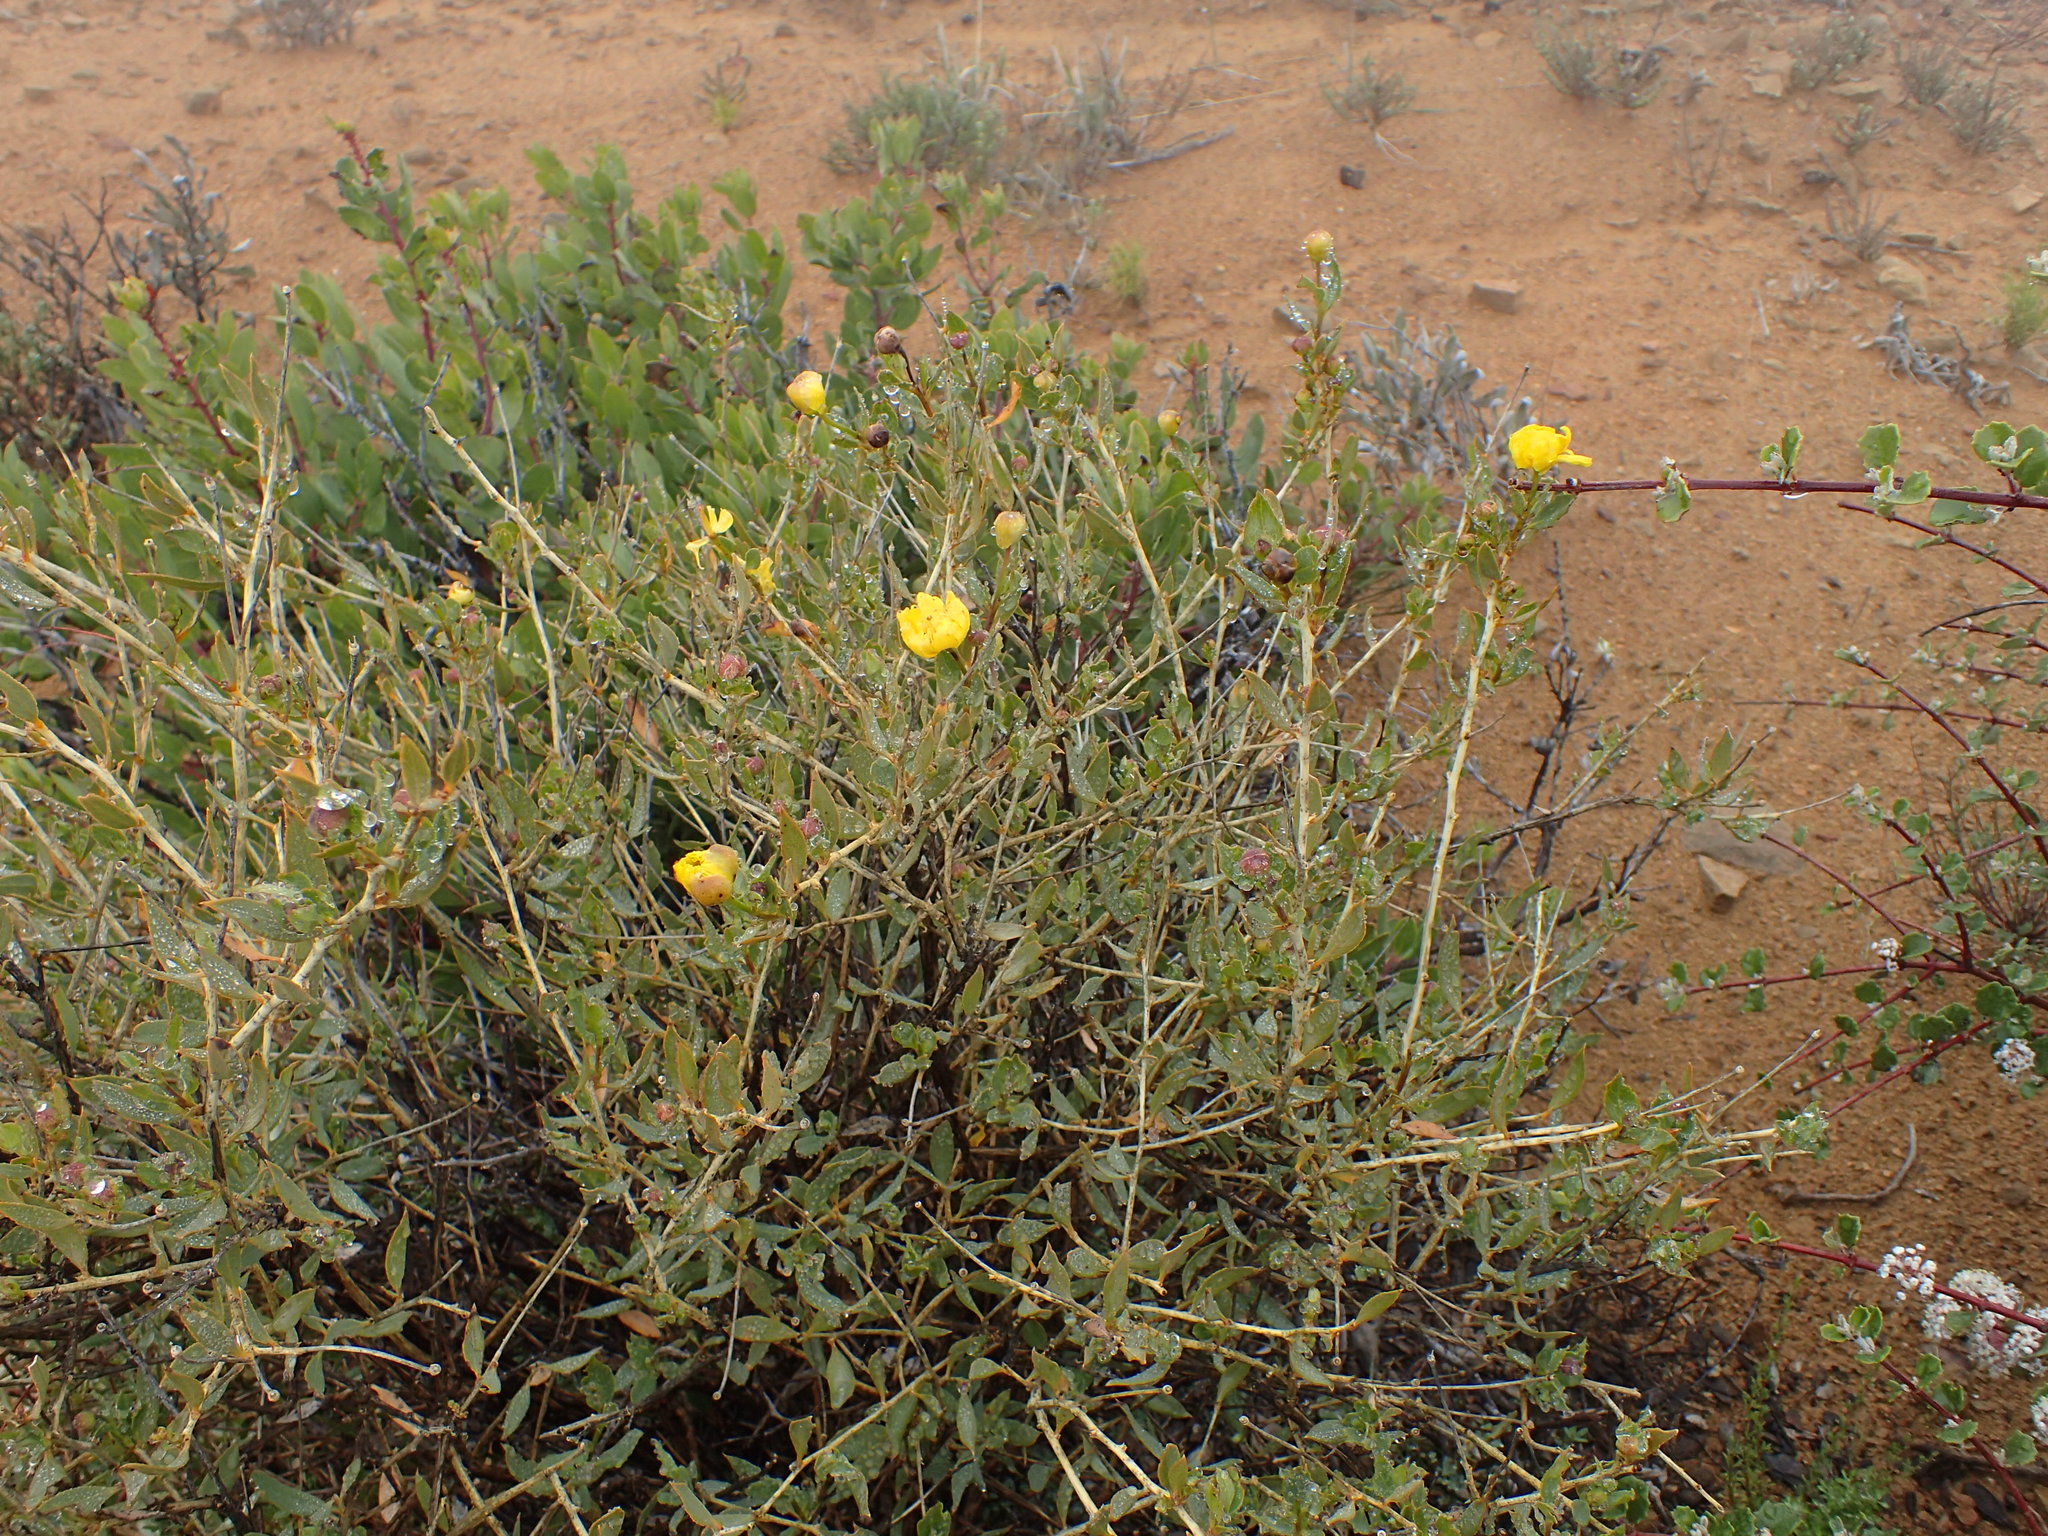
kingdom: Plantae
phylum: Tracheophyta
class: Magnoliopsida
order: Ranunculales
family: Papaveraceae
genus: Dendromecon
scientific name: Dendromecon rigida
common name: Tree poppy
